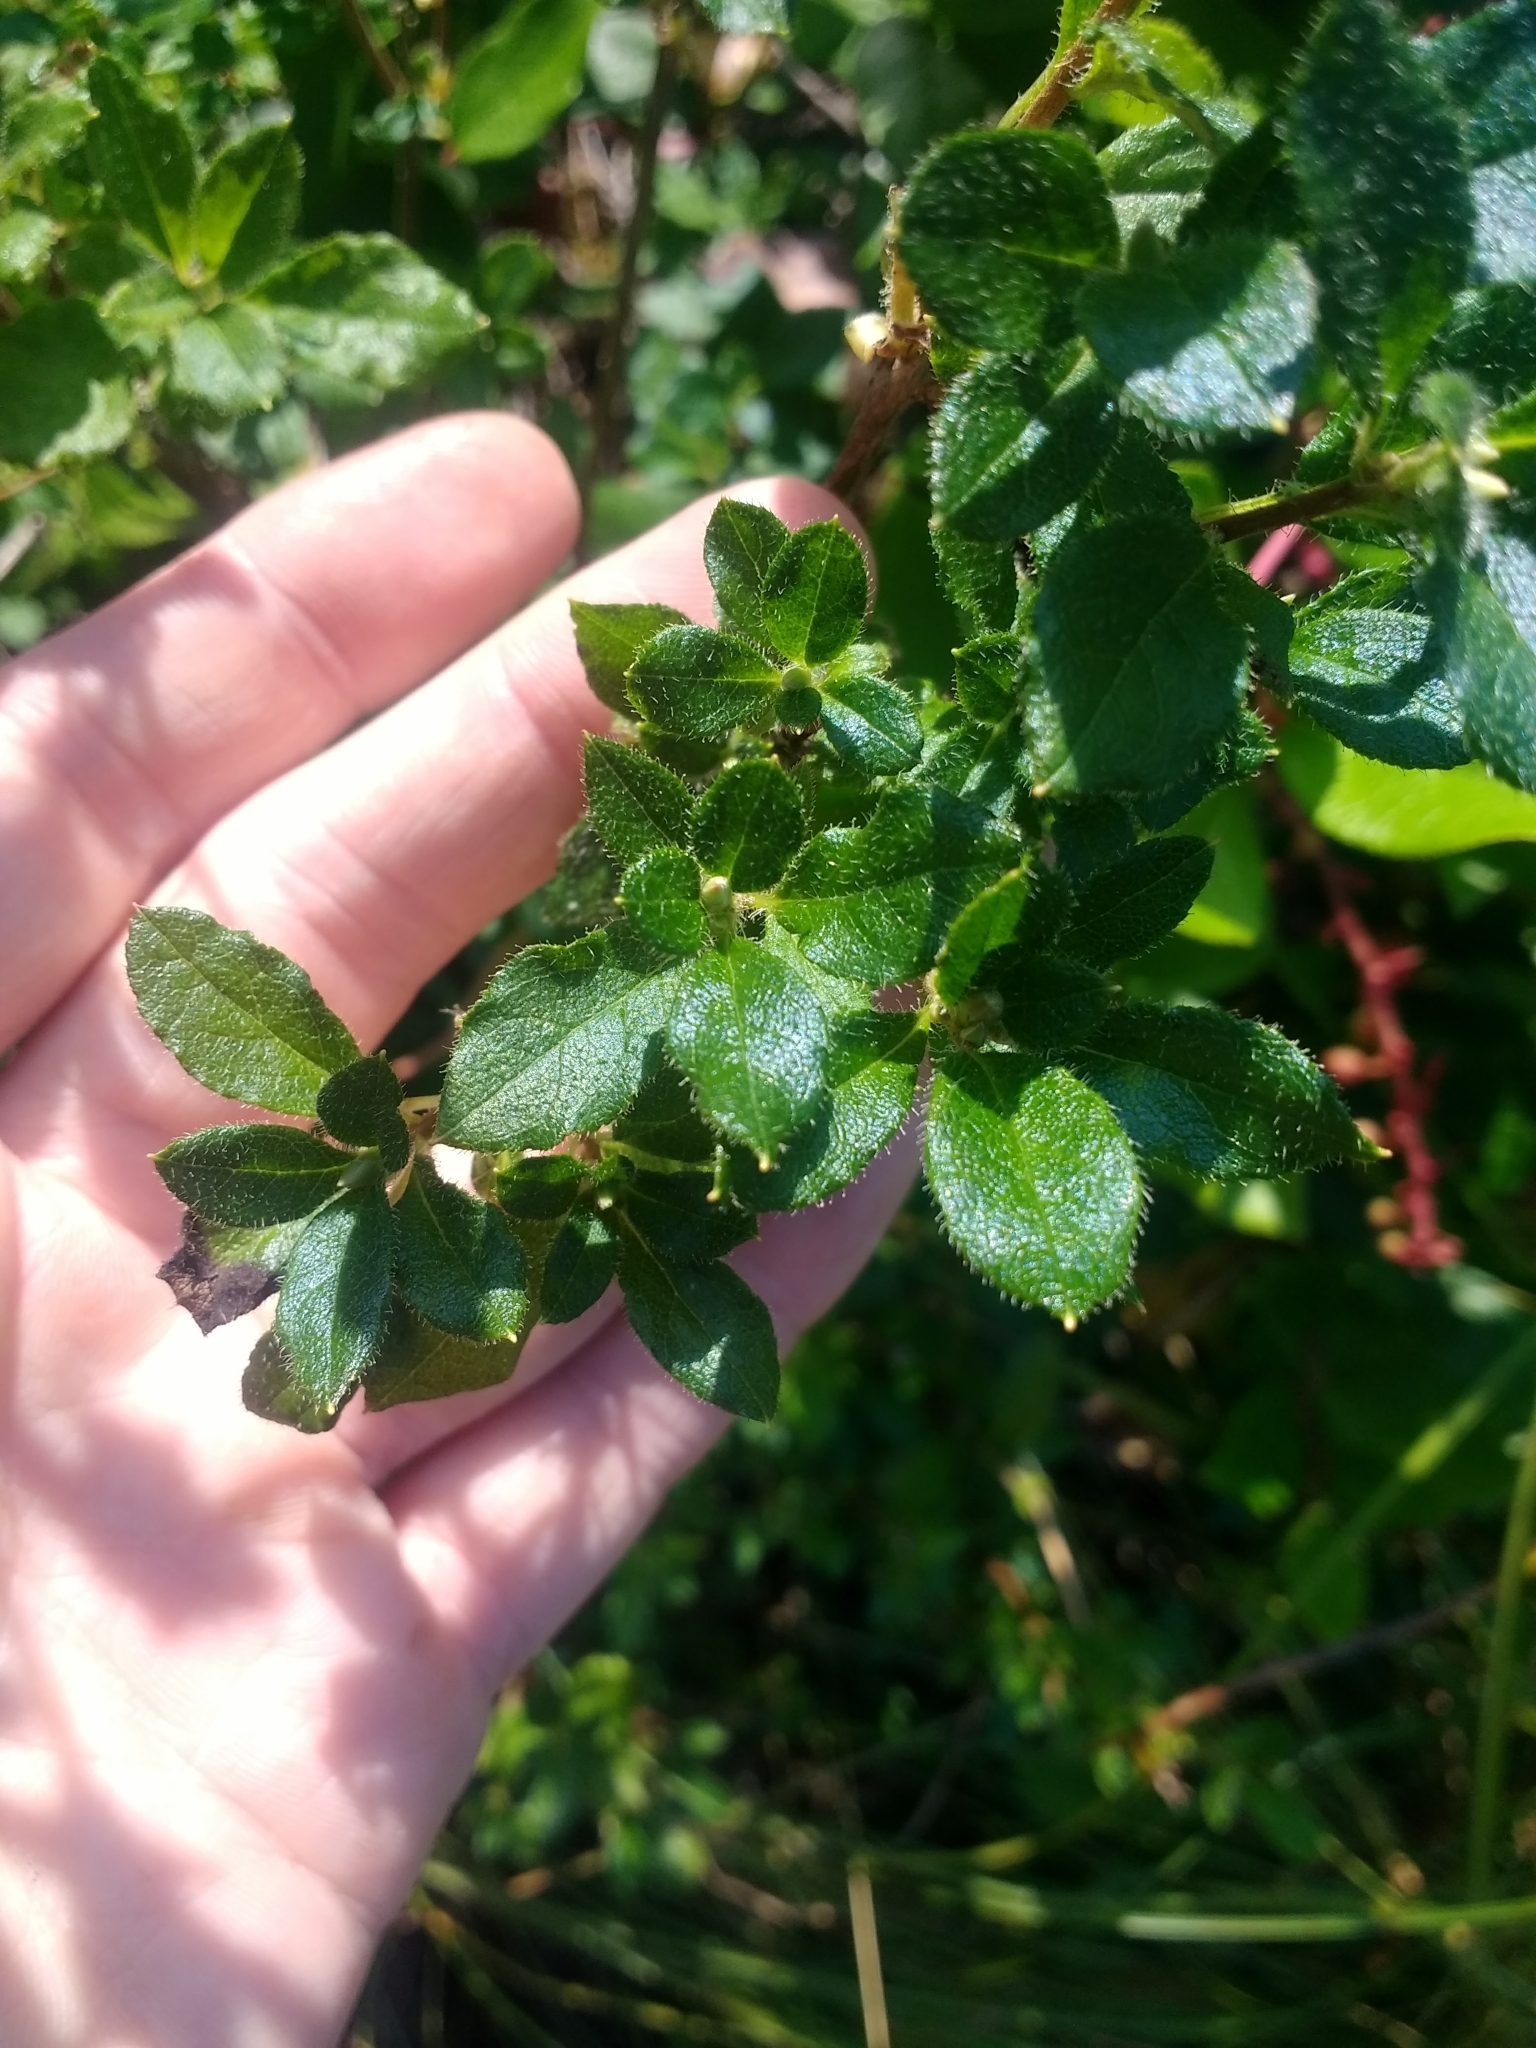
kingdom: Plantae
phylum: Tracheophyta
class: Magnoliopsida
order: Ericales
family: Ericaceae
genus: Rhododendron
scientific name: Rhododendron menziesii
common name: Pacific menziesia
